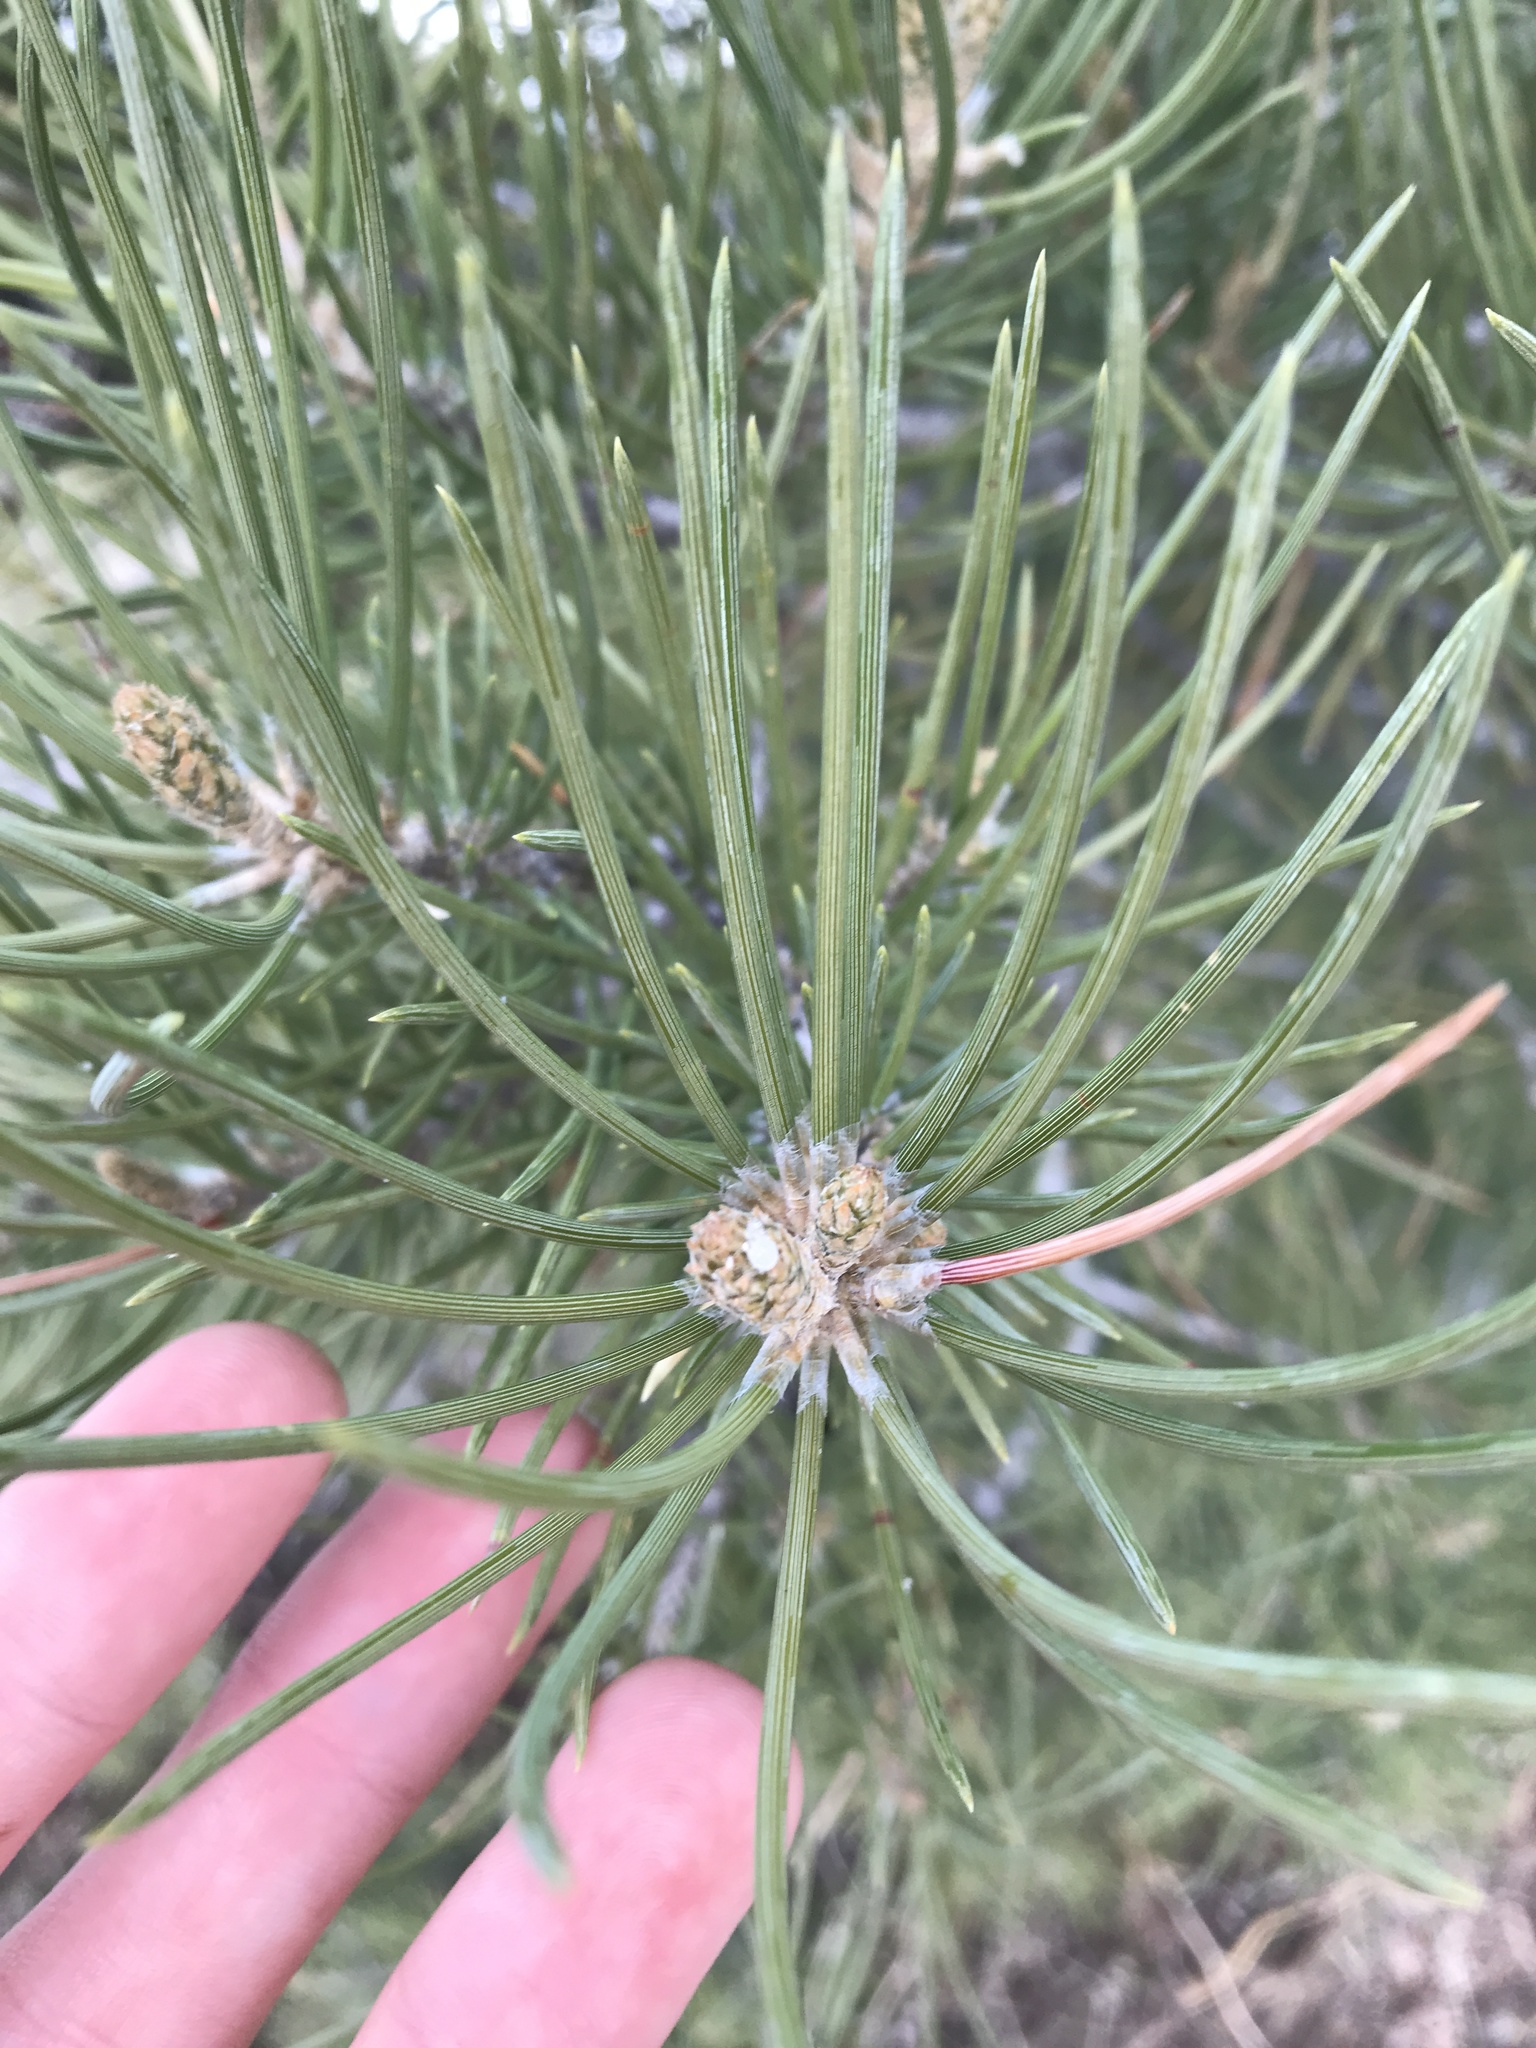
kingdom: Plantae
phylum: Tracheophyta
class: Pinopsida
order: Pinales
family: Pinaceae
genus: Pinus
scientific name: Pinus monophylla
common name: One-leaved nut pine
